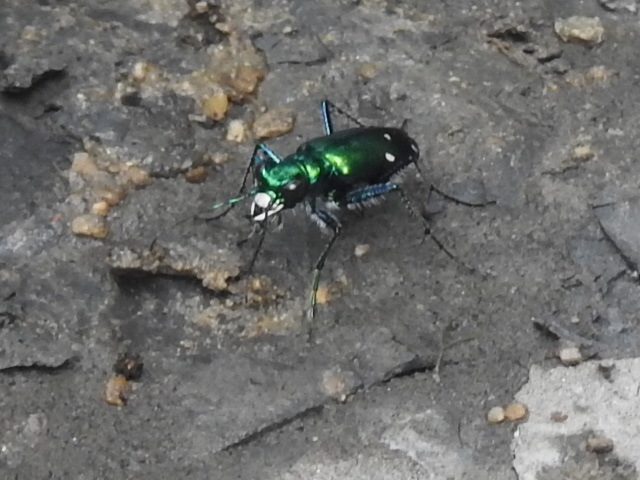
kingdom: Animalia
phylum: Arthropoda
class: Insecta
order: Coleoptera
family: Carabidae
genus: Cicindela
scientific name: Cicindela sexguttata
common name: Six-spotted tiger beetle
